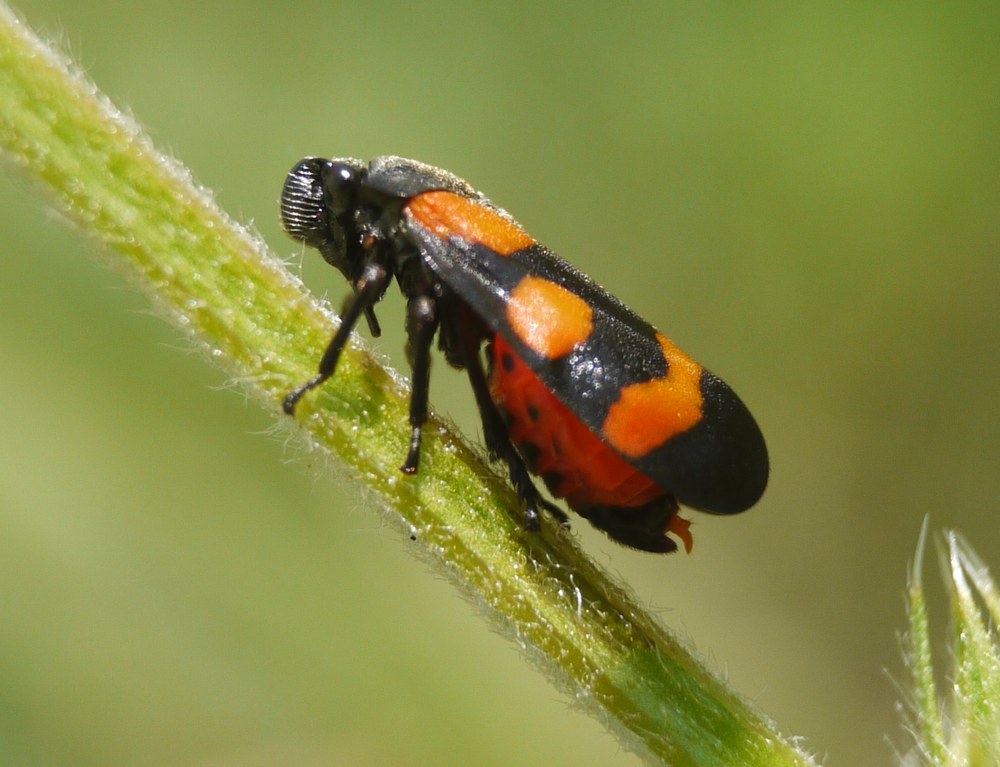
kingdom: Animalia
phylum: Arthropoda
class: Insecta
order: Hemiptera
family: Cercopidae
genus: Cercopis
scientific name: Cercopis sanguinolenta
